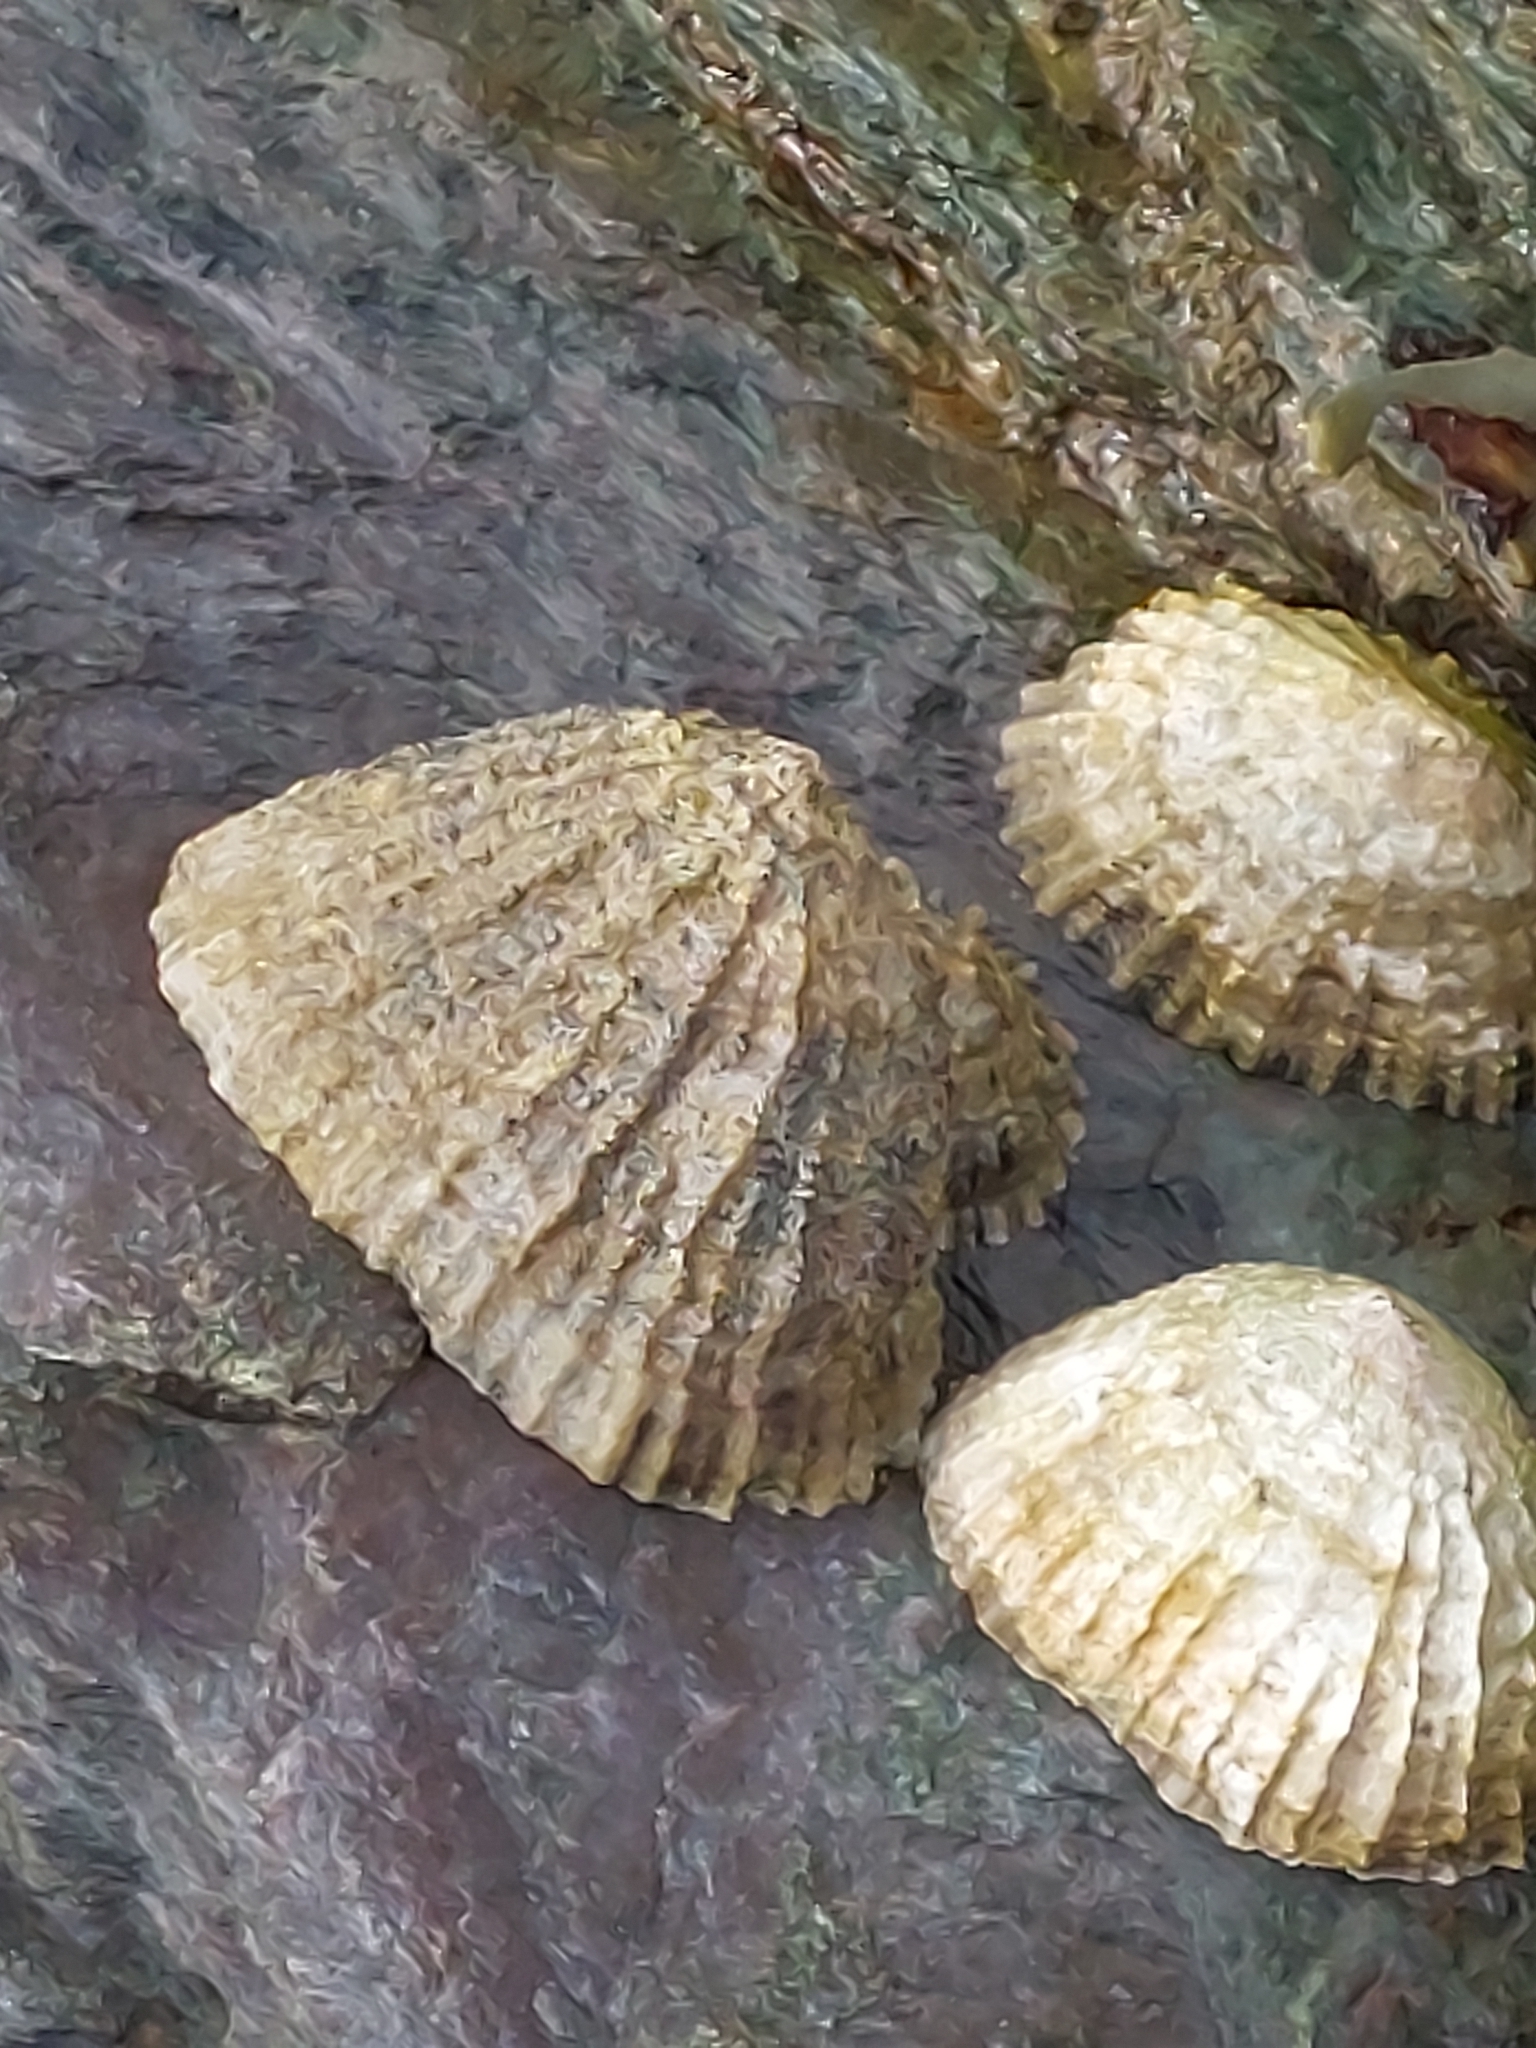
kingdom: Animalia
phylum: Mollusca
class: Gastropoda
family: Patellidae
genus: Patella
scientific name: Patella vulgata
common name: Common limpet
